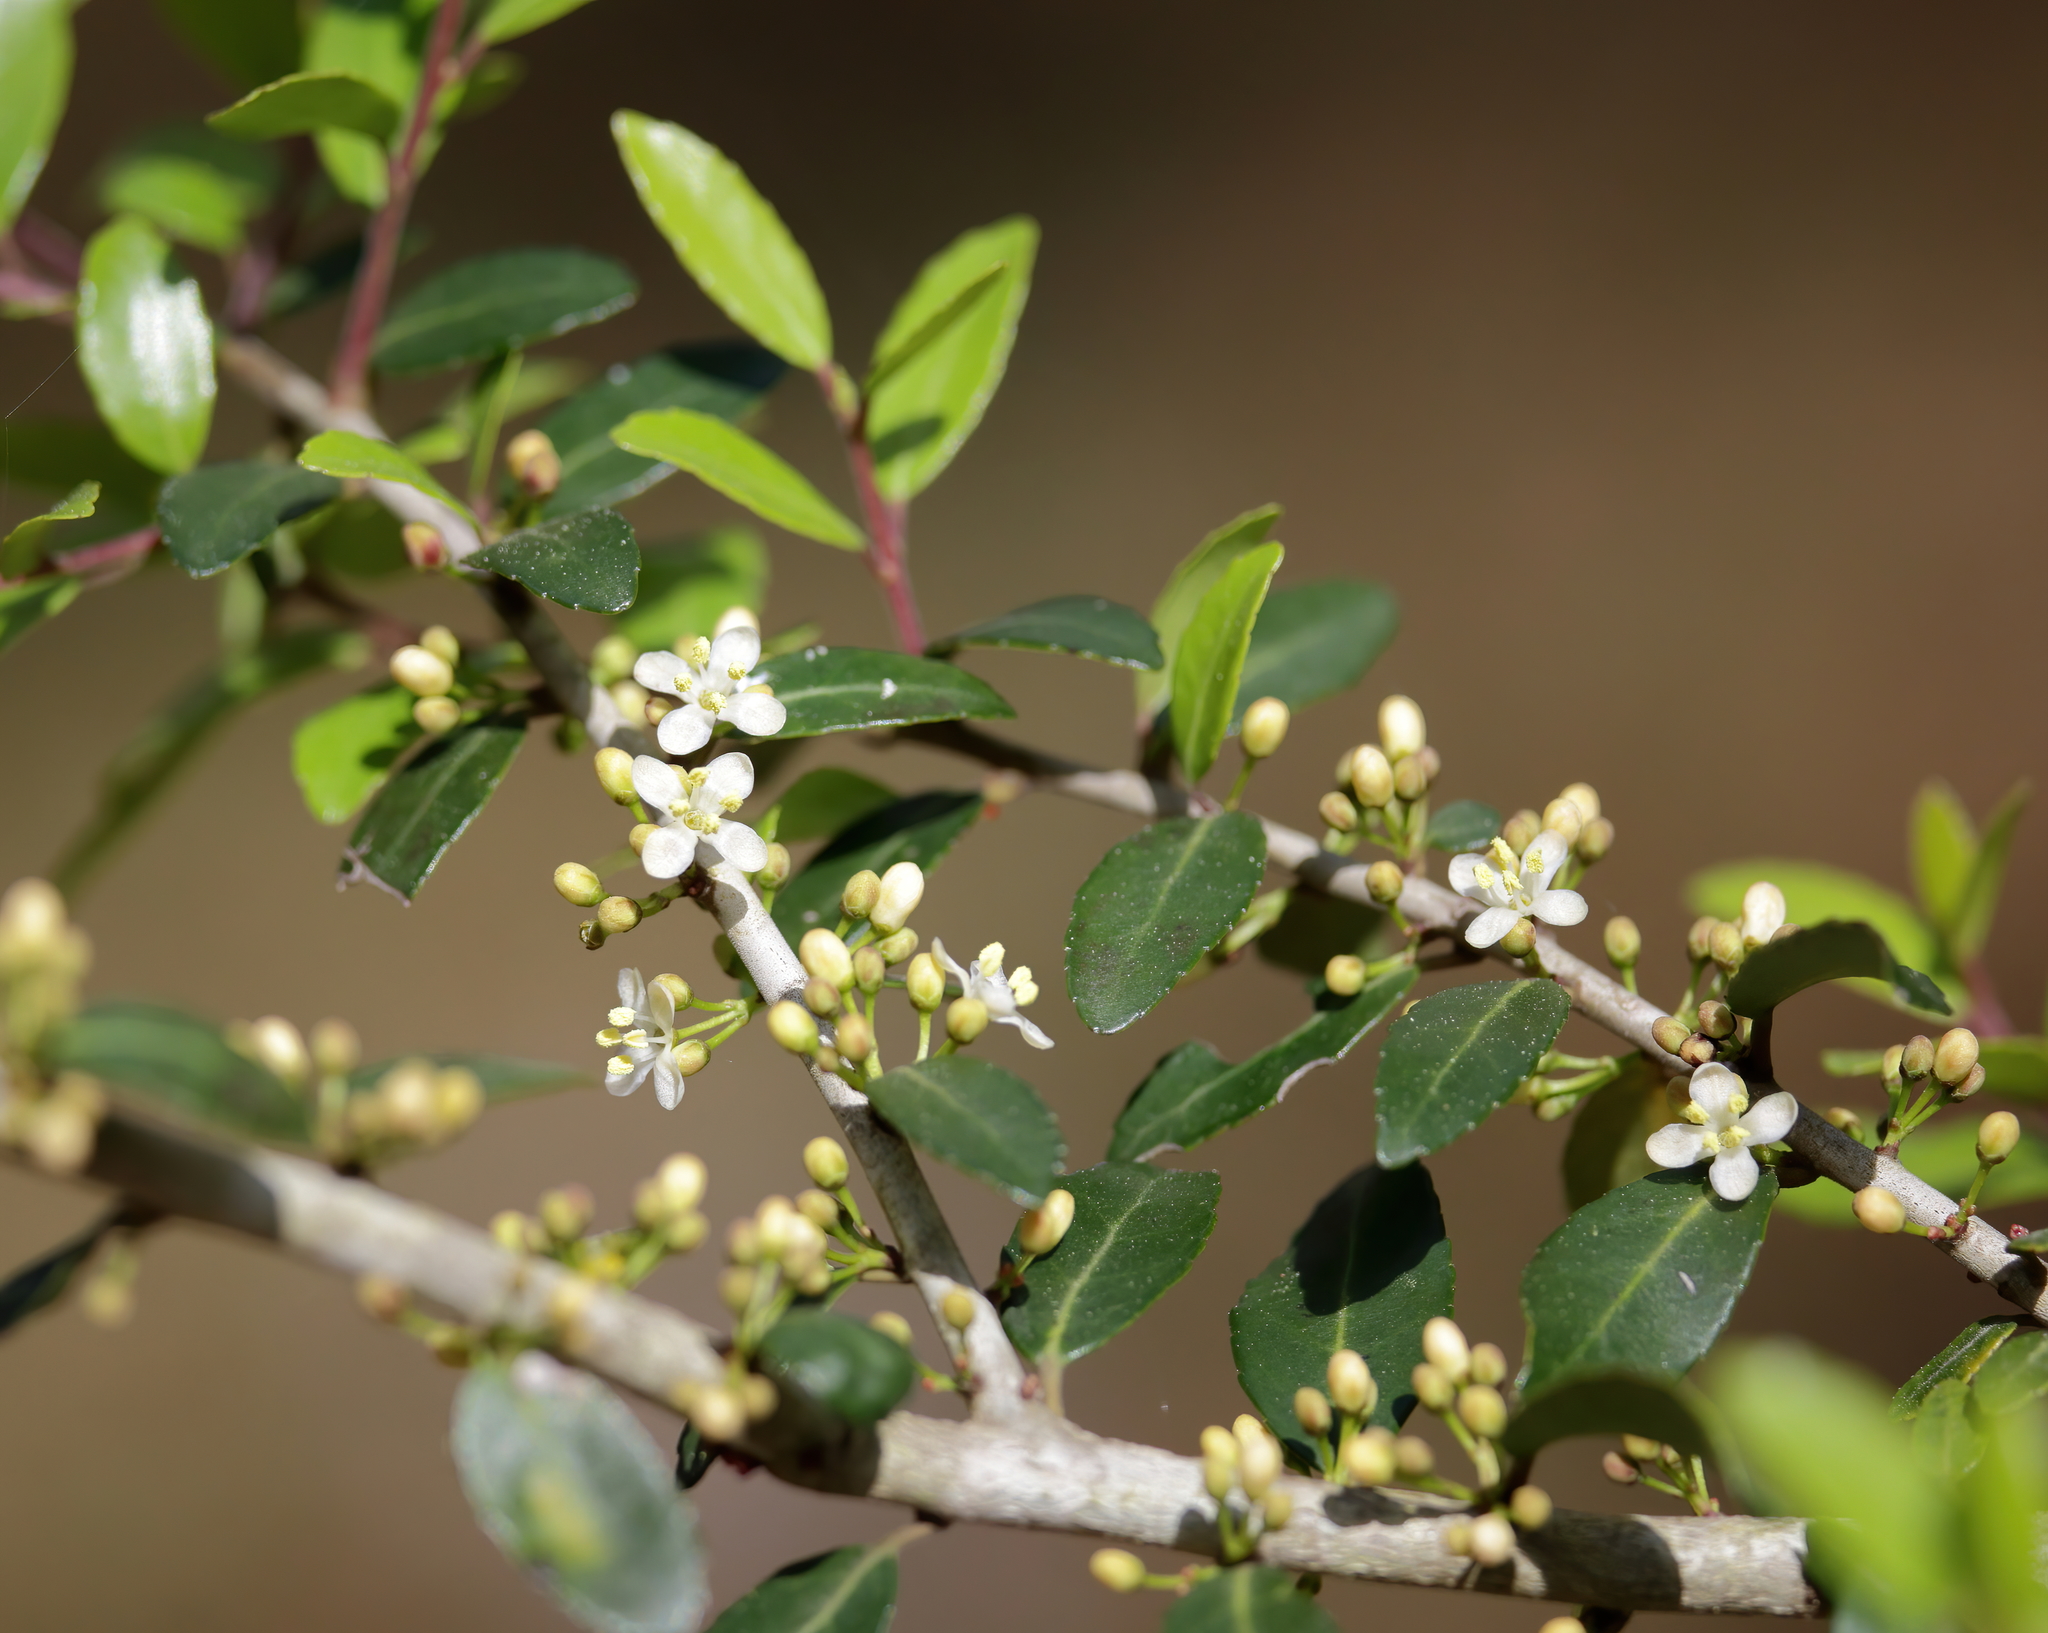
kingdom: Plantae
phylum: Tracheophyta
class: Magnoliopsida
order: Aquifoliales
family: Aquifoliaceae
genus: Ilex
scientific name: Ilex vomitoria
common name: Yaupon holly
